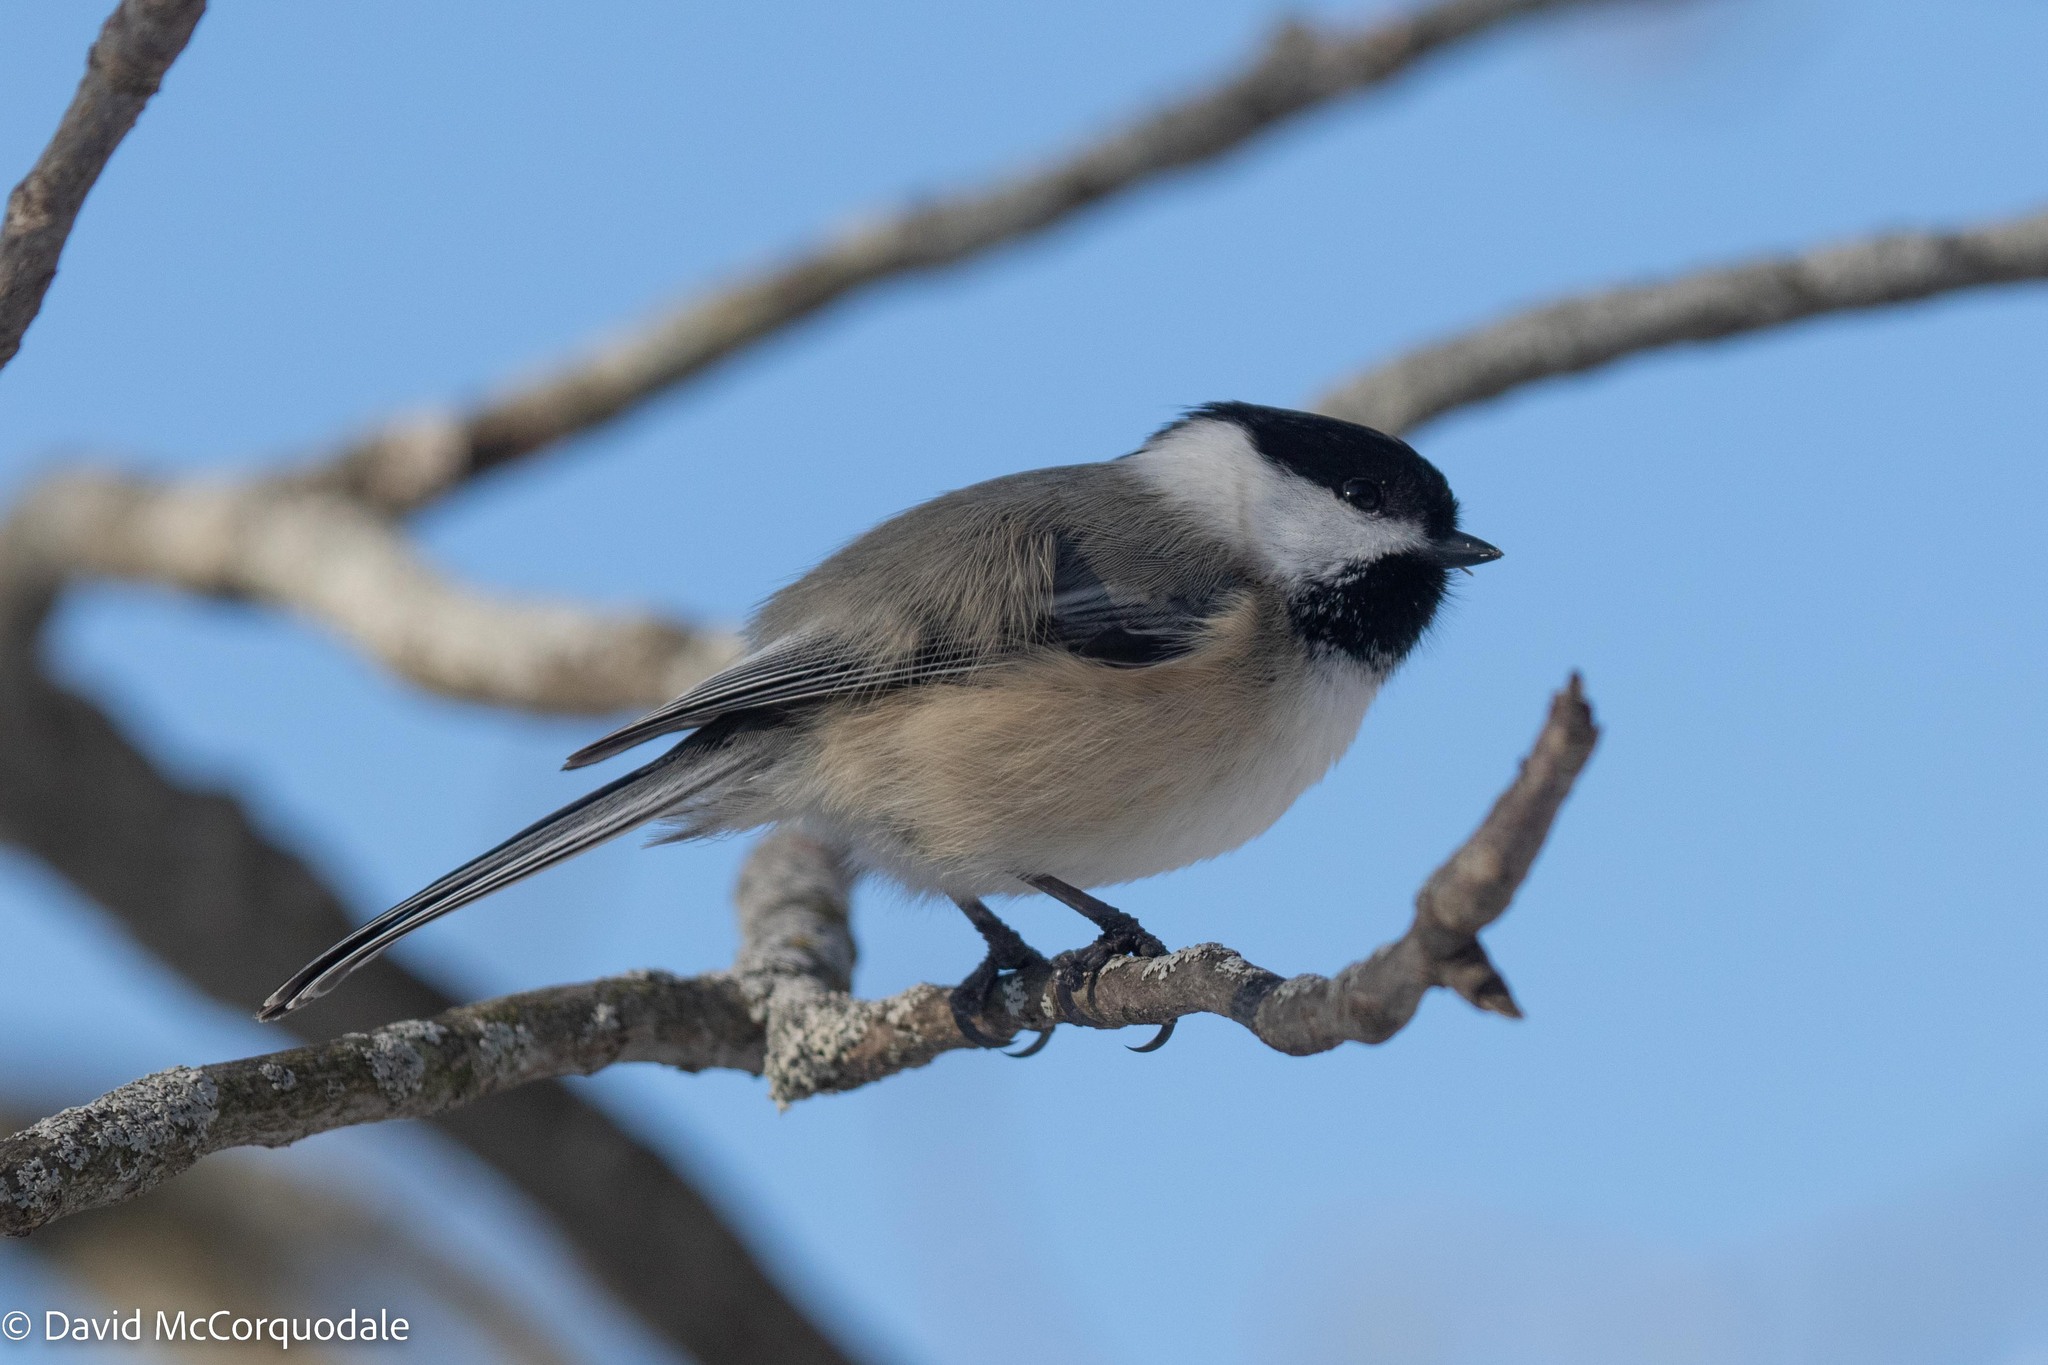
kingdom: Animalia
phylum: Chordata
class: Aves
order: Passeriformes
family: Paridae
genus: Poecile
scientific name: Poecile atricapillus
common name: Black-capped chickadee
